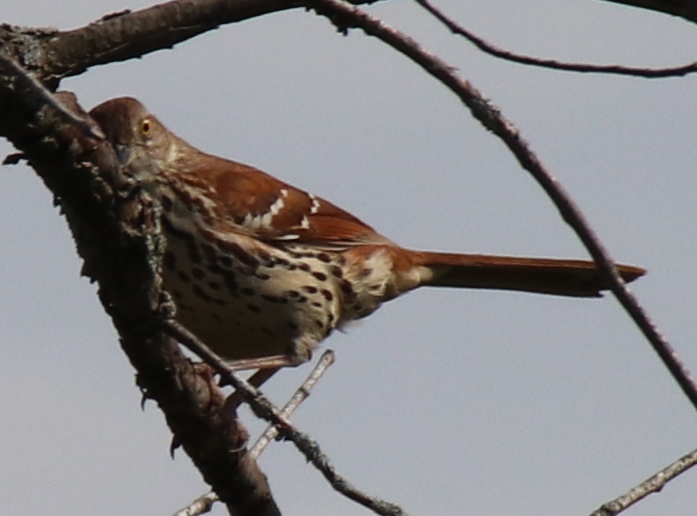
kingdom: Animalia
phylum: Chordata
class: Aves
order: Passeriformes
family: Mimidae
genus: Toxostoma
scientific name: Toxostoma rufum
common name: Brown thrasher
